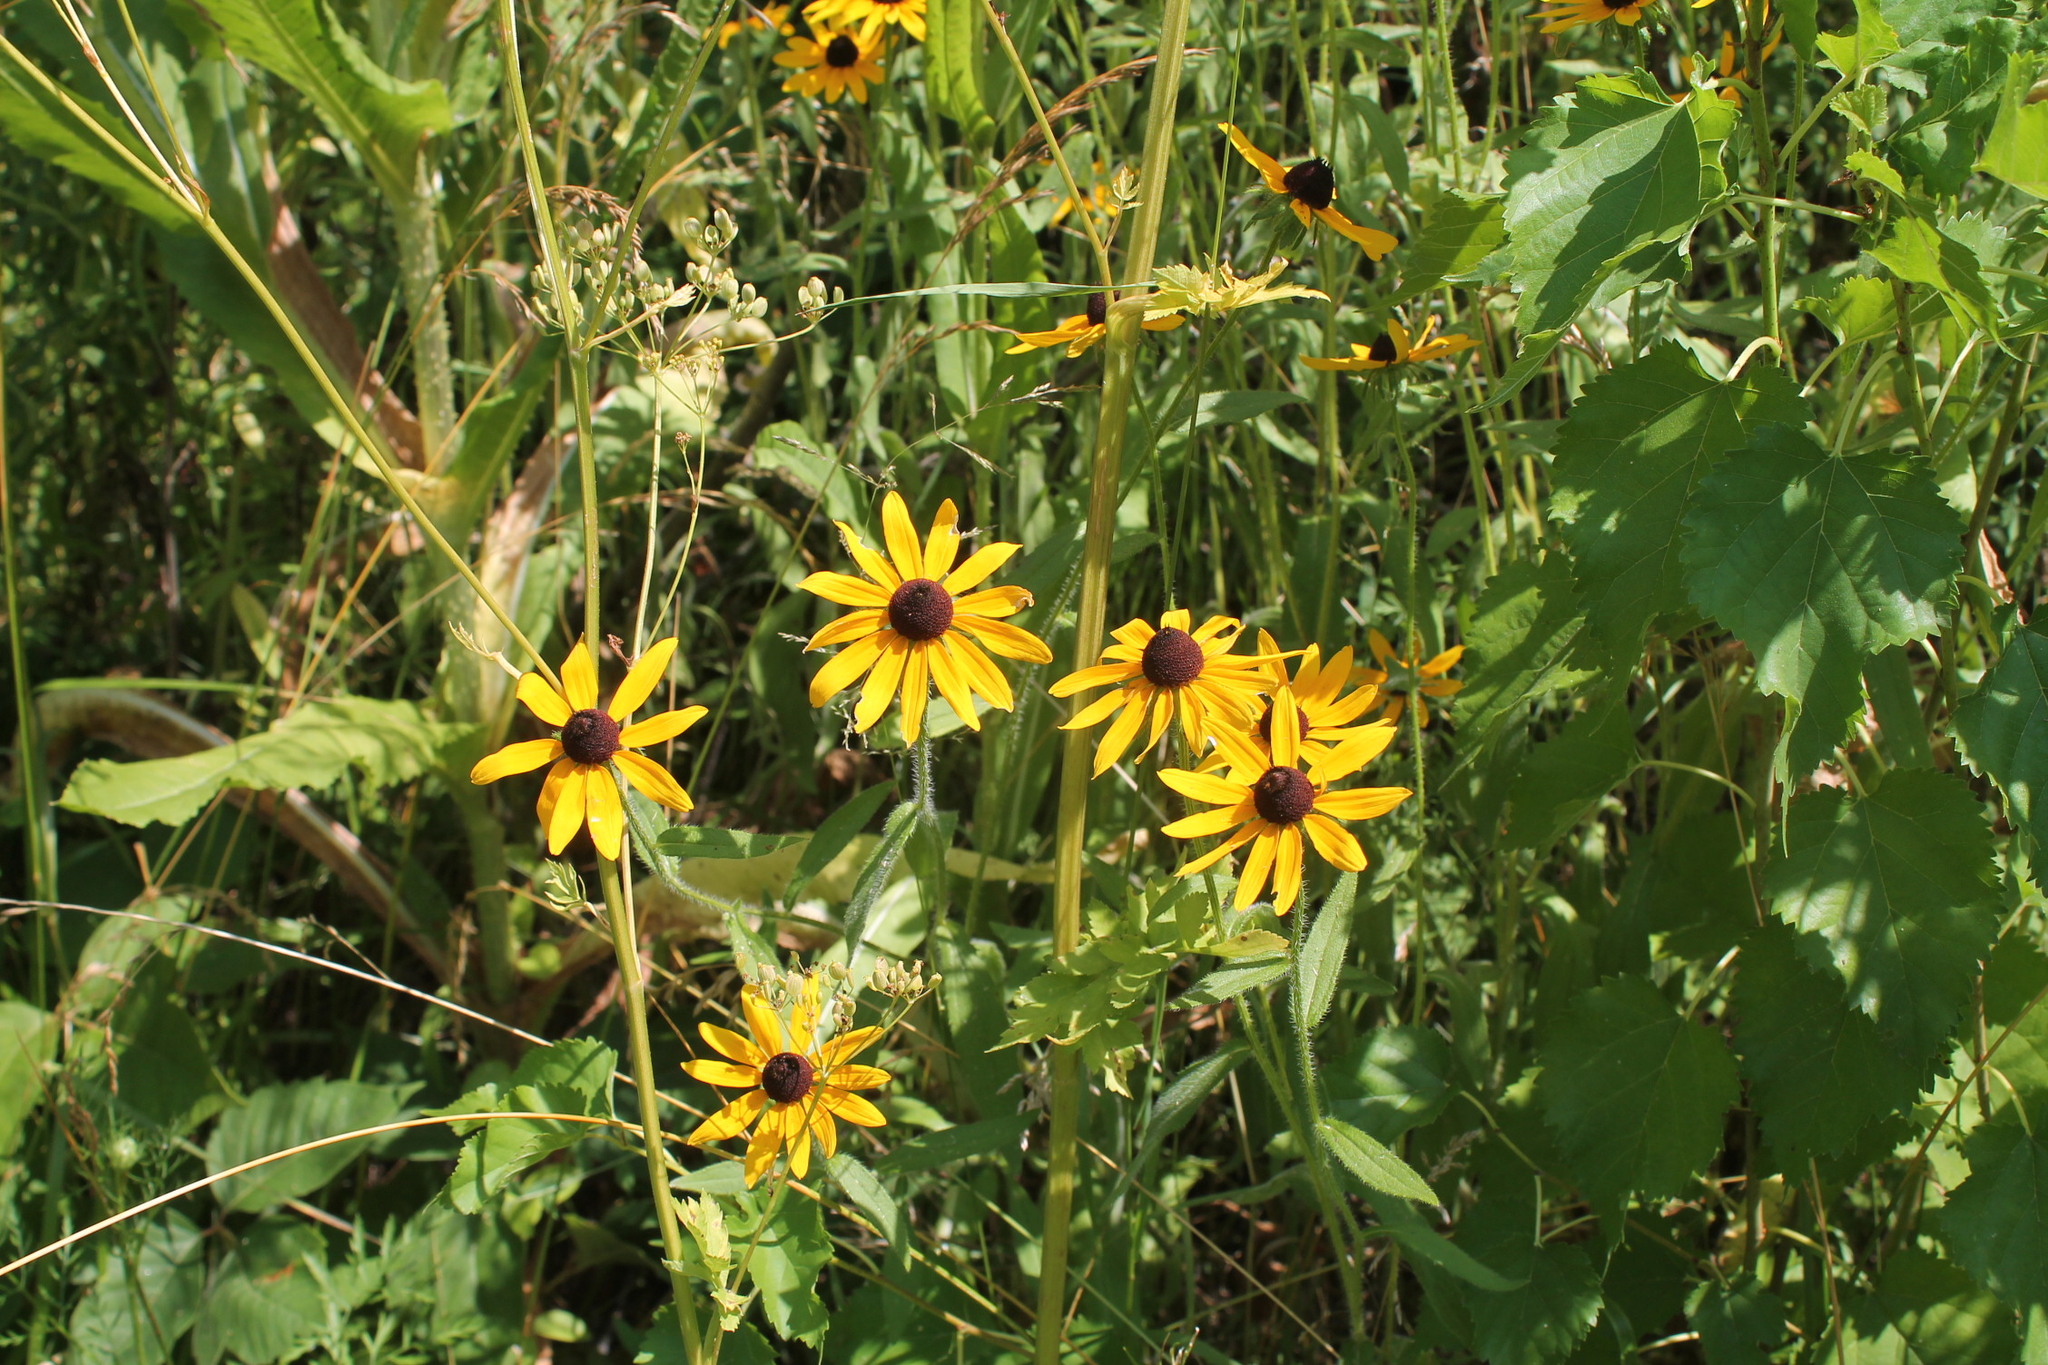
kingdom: Plantae
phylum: Tracheophyta
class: Magnoliopsida
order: Asterales
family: Asteraceae
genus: Rudbeckia
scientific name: Rudbeckia hirta
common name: Black-eyed-susan
